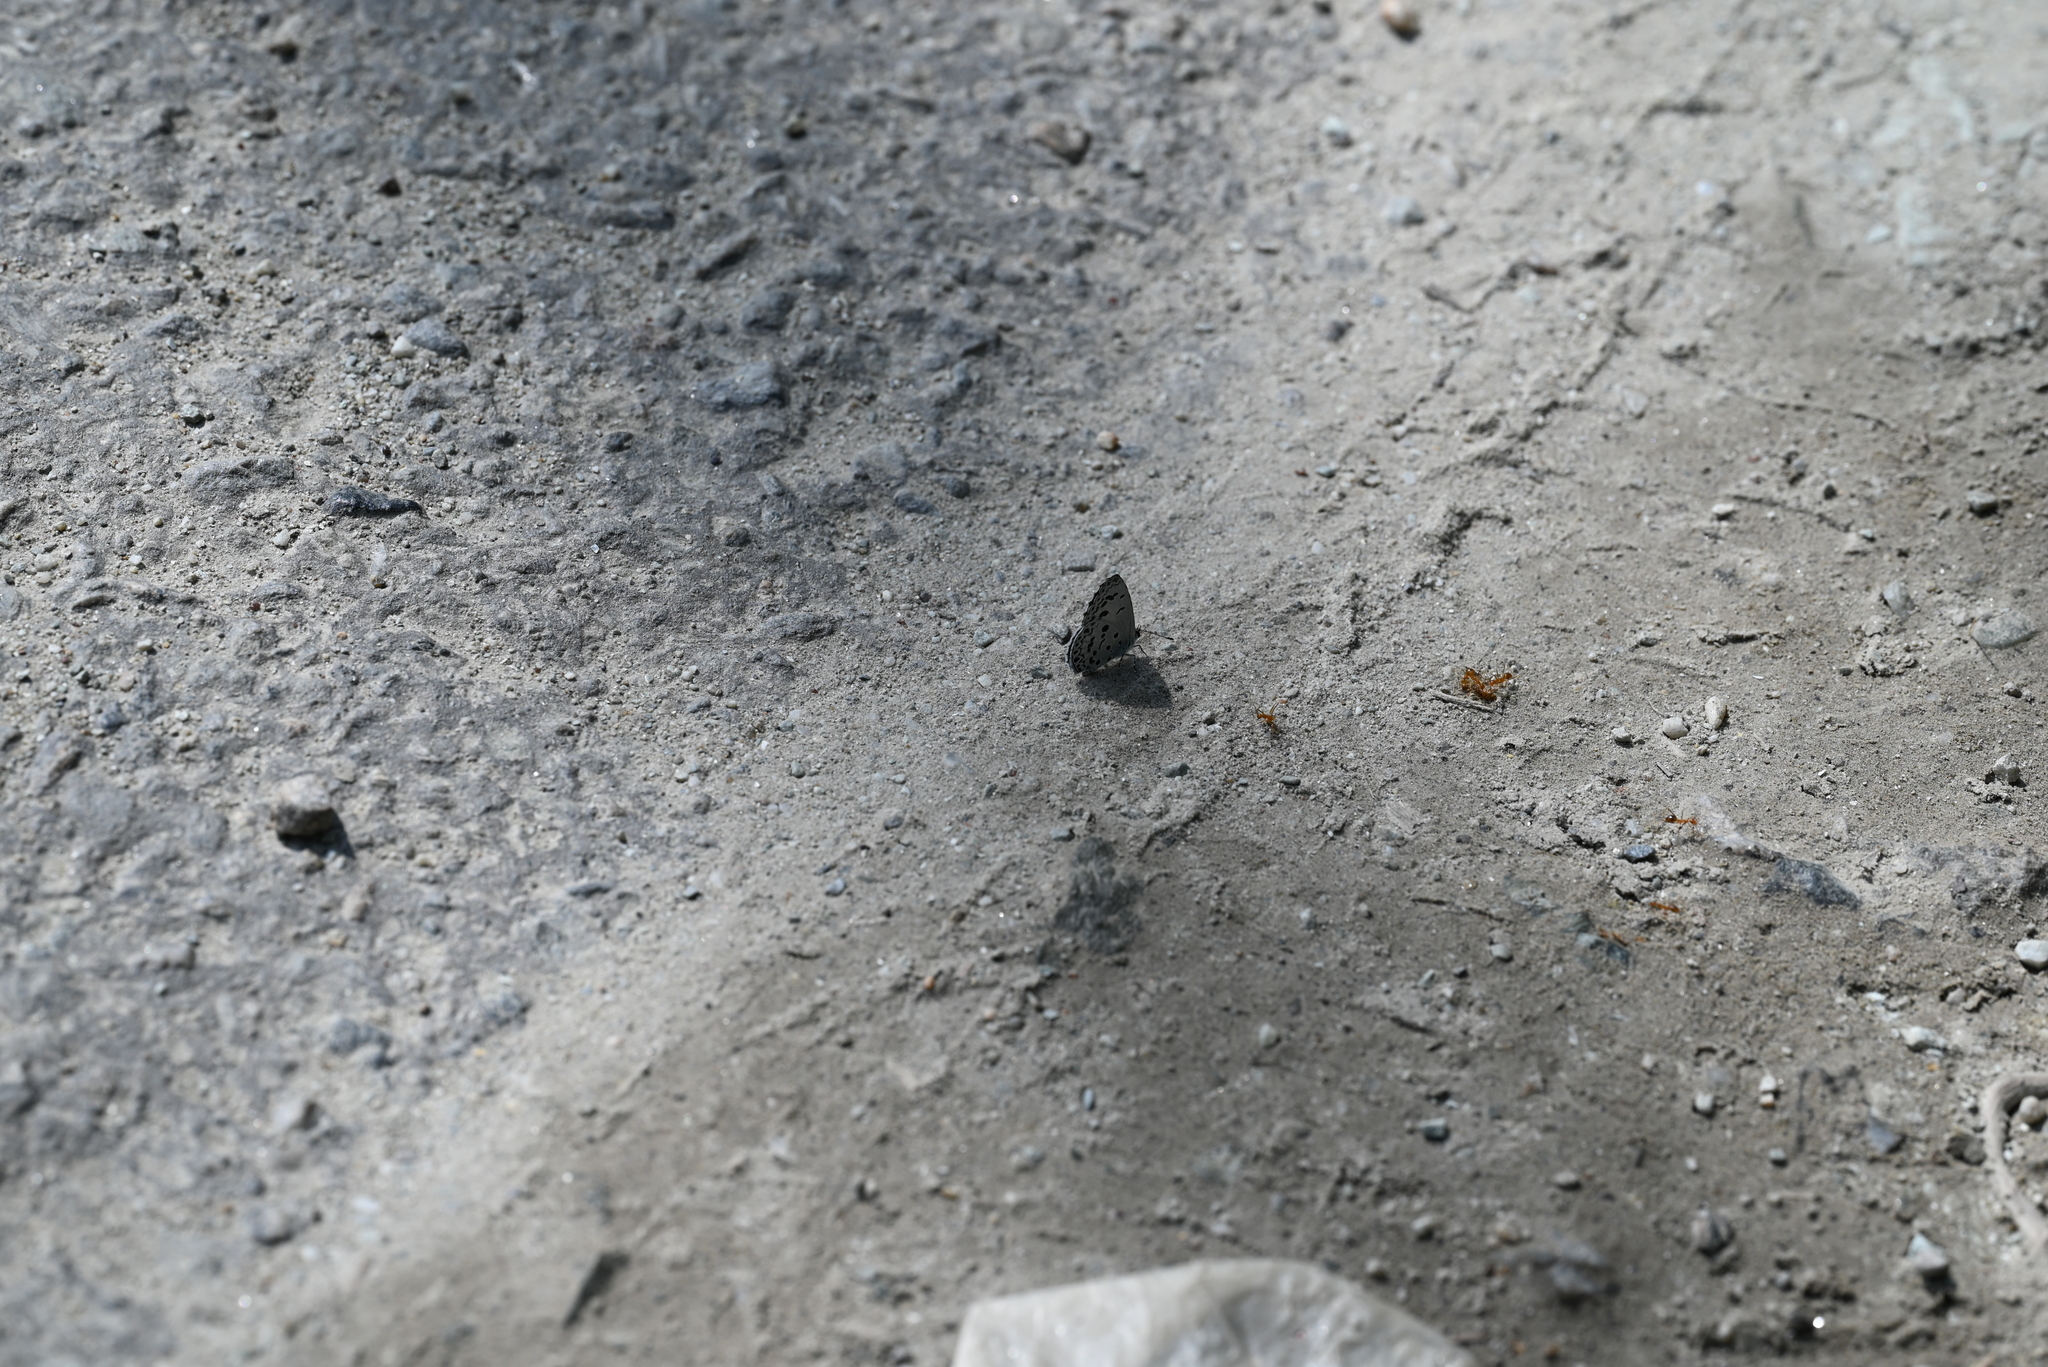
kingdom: Animalia
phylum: Arthropoda
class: Insecta
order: Lepidoptera
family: Lycaenidae
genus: Acytolepis
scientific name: Acytolepis puspa
